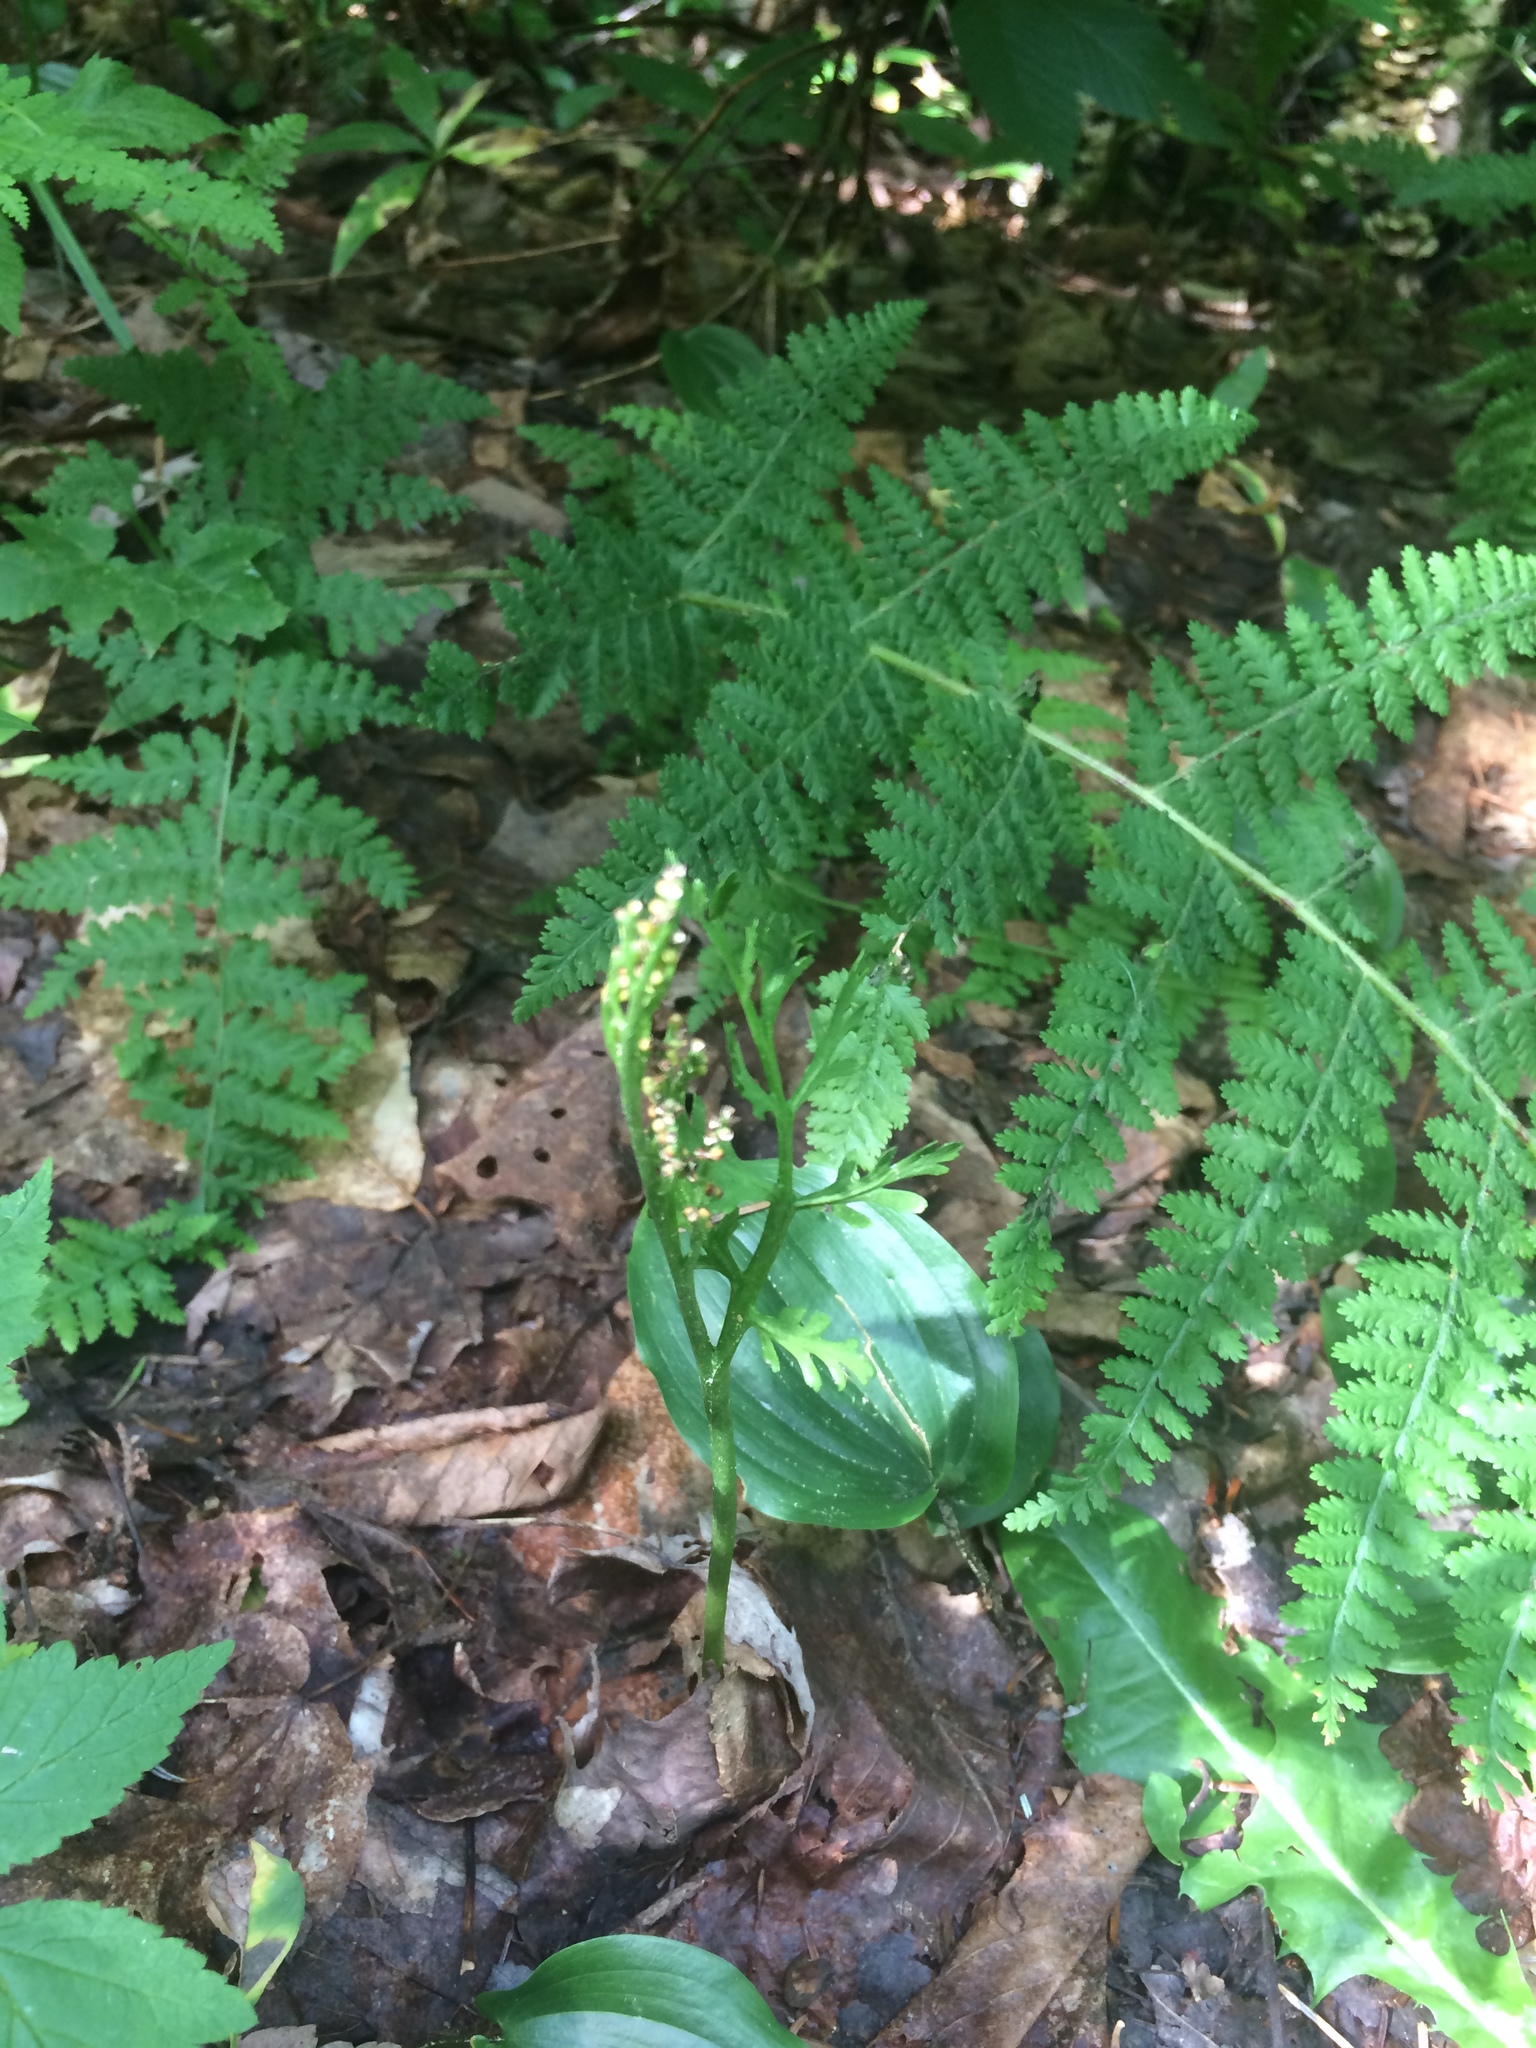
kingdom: Plantae
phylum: Tracheophyta
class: Polypodiopsida
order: Ophioglossales
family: Ophioglossaceae
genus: Botrychium
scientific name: Botrychium matricariifolium
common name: Branched moonwort
